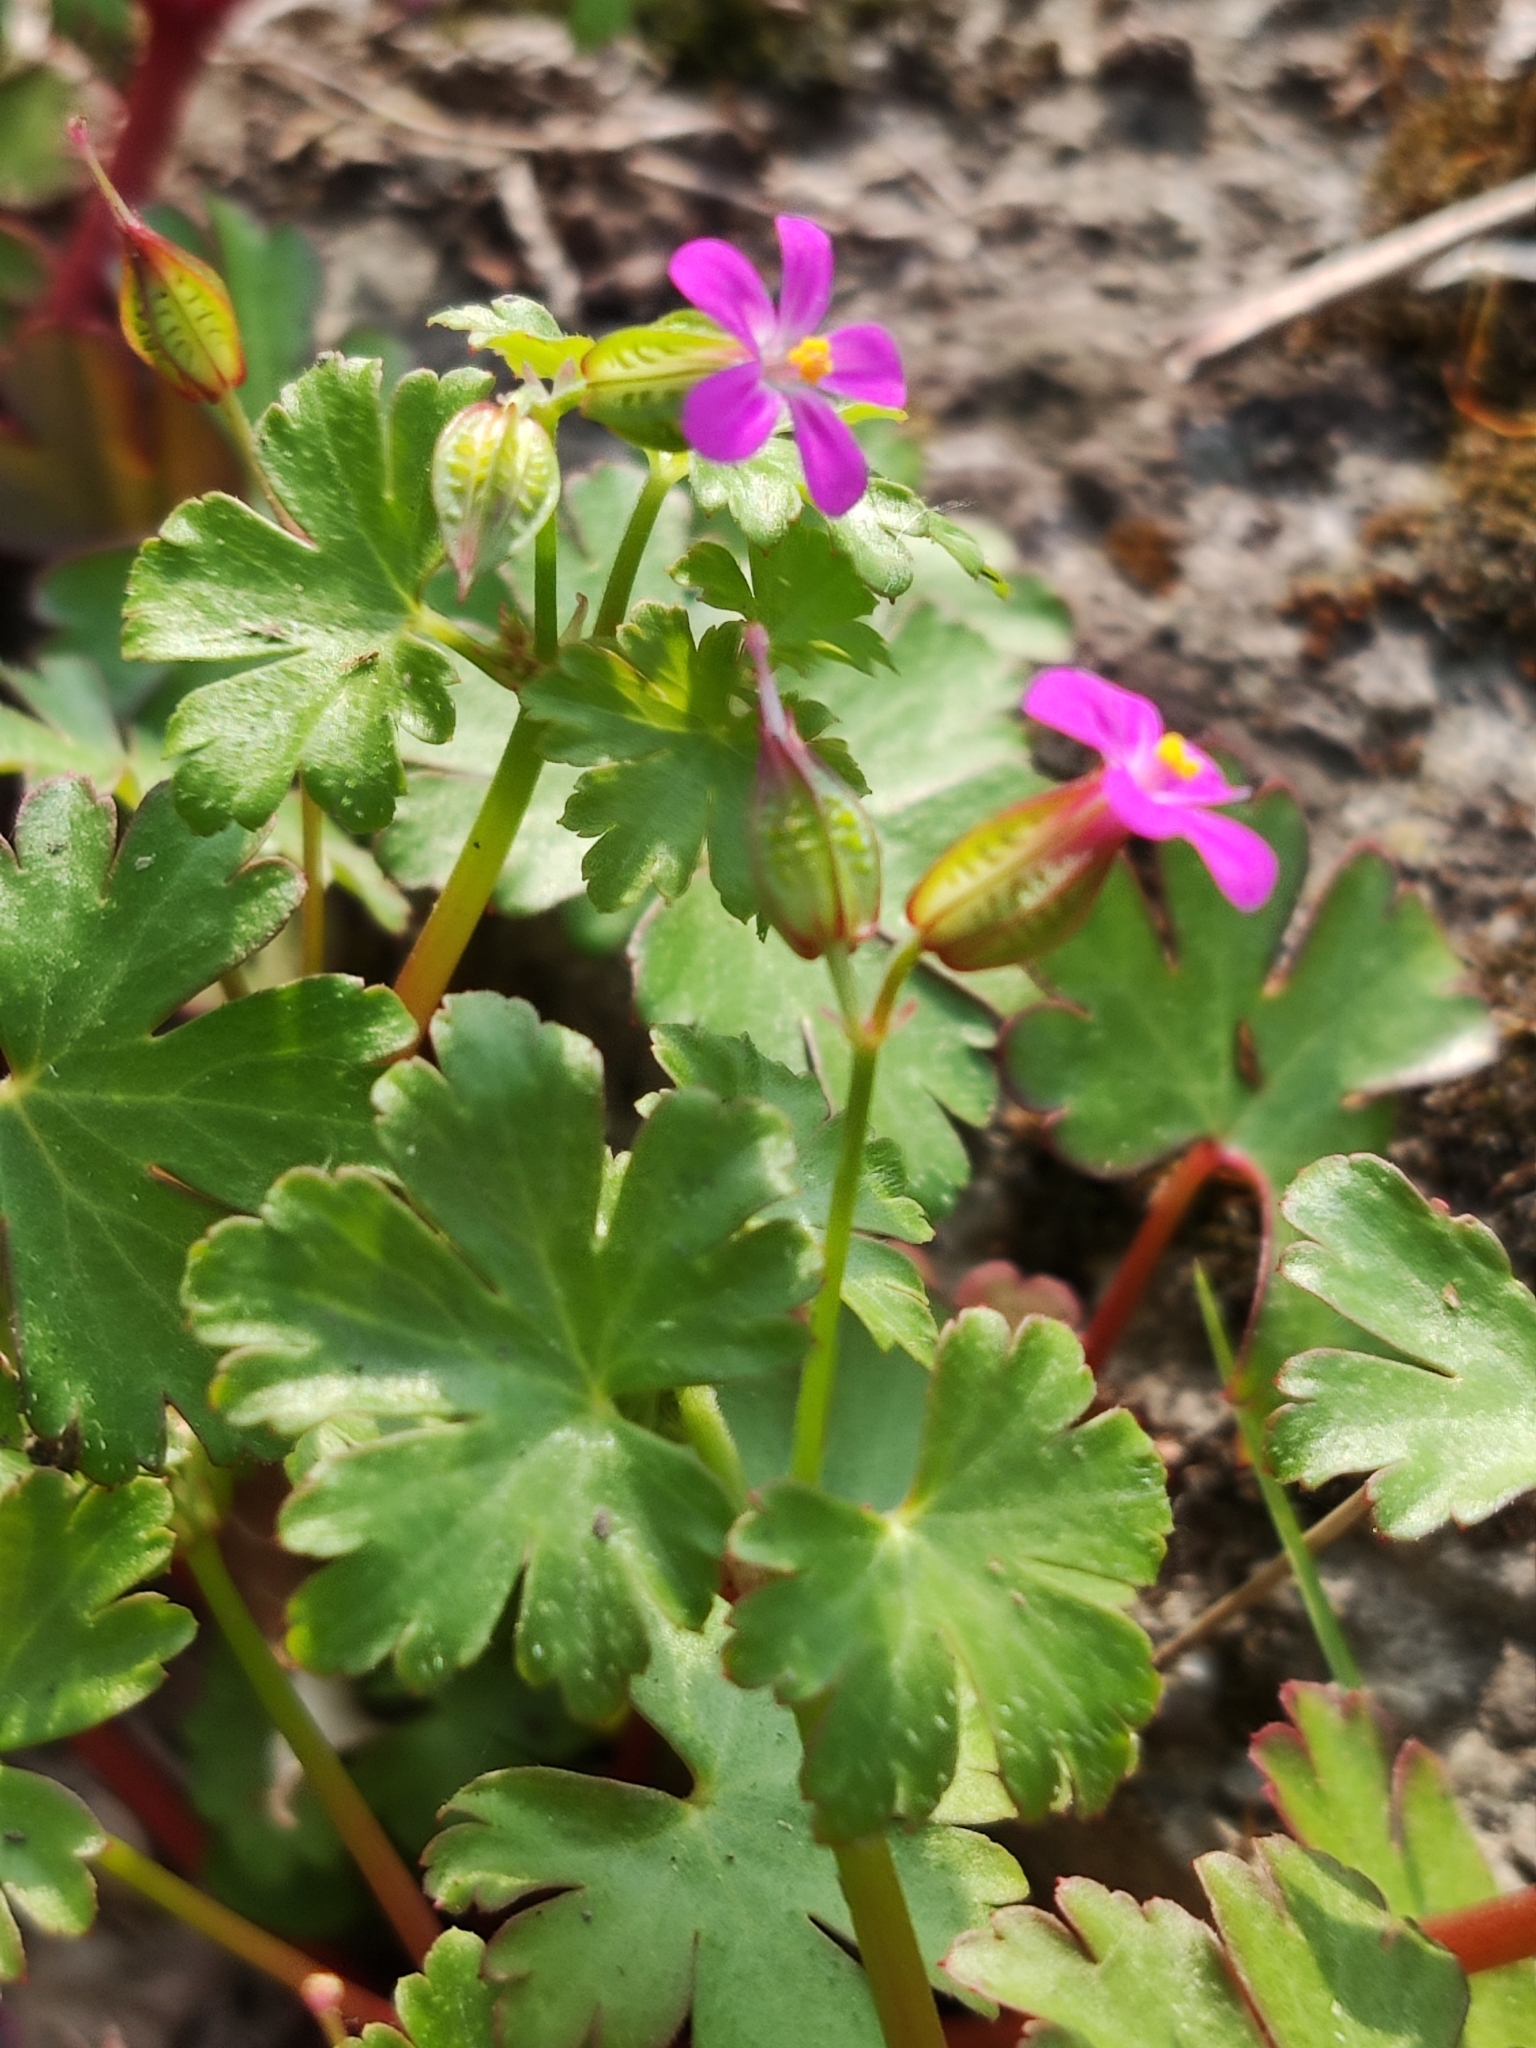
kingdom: Plantae
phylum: Tracheophyta
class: Magnoliopsida
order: Geraniales
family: Geraniaceae
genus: Geranium
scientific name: Geranium lucidum
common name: Shining crane's-bill
